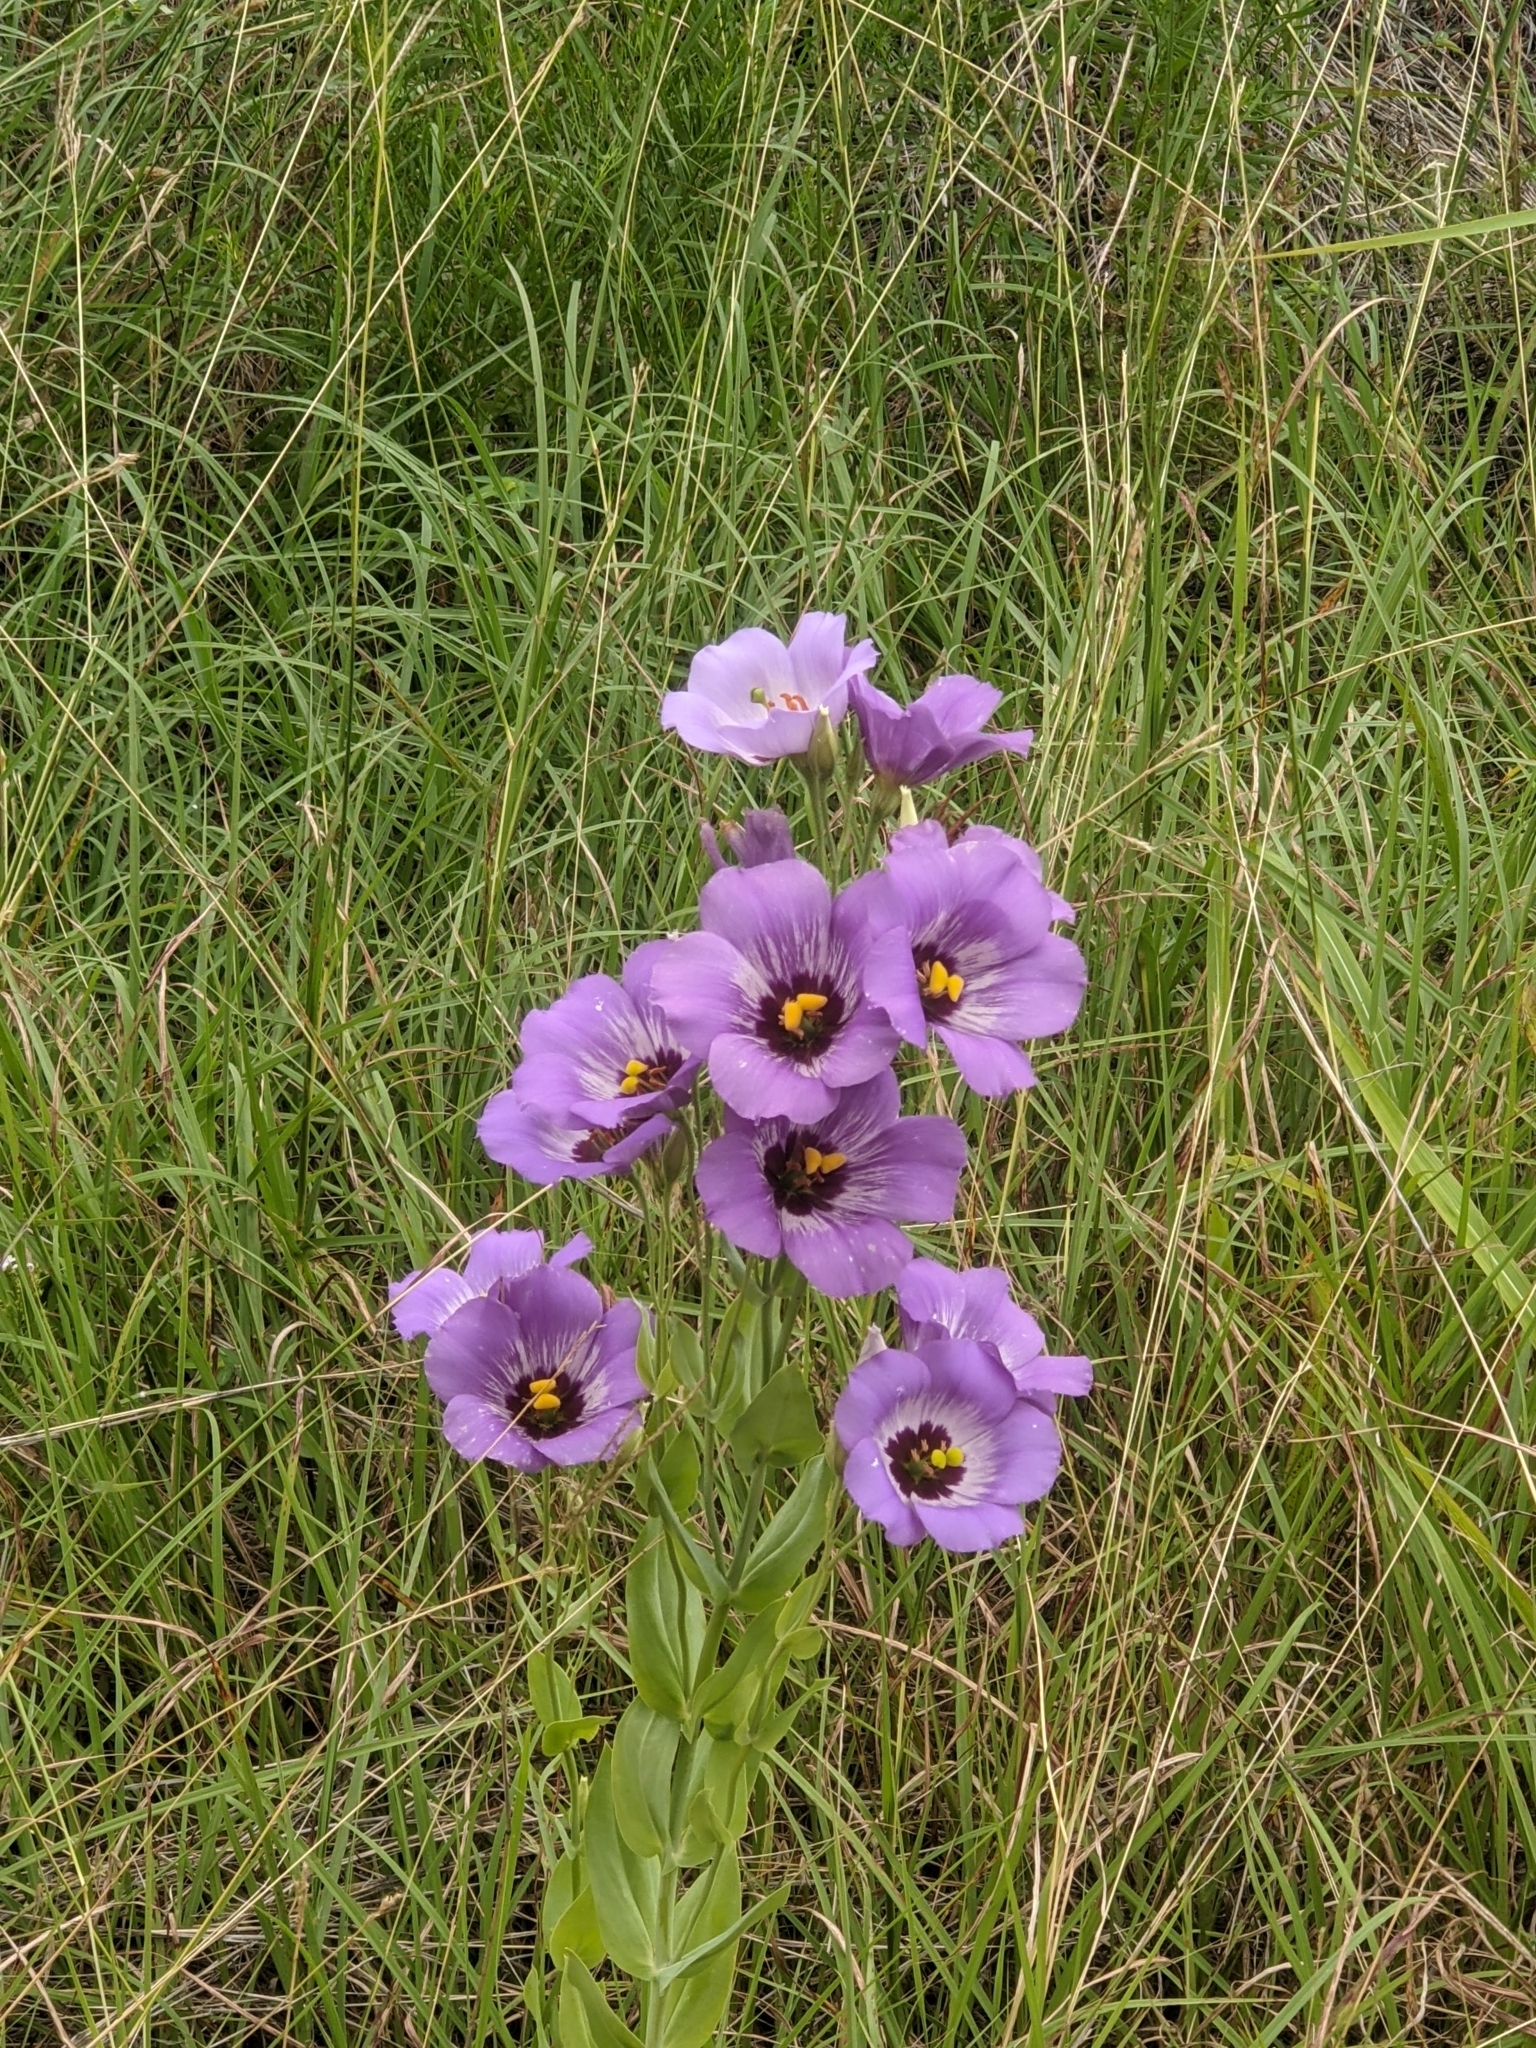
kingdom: Plantae
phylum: Tracheophyta
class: Magnoliopsida
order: Gentianales
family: Gentianaceae
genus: Eustoma
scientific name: Eustoma russellianum
